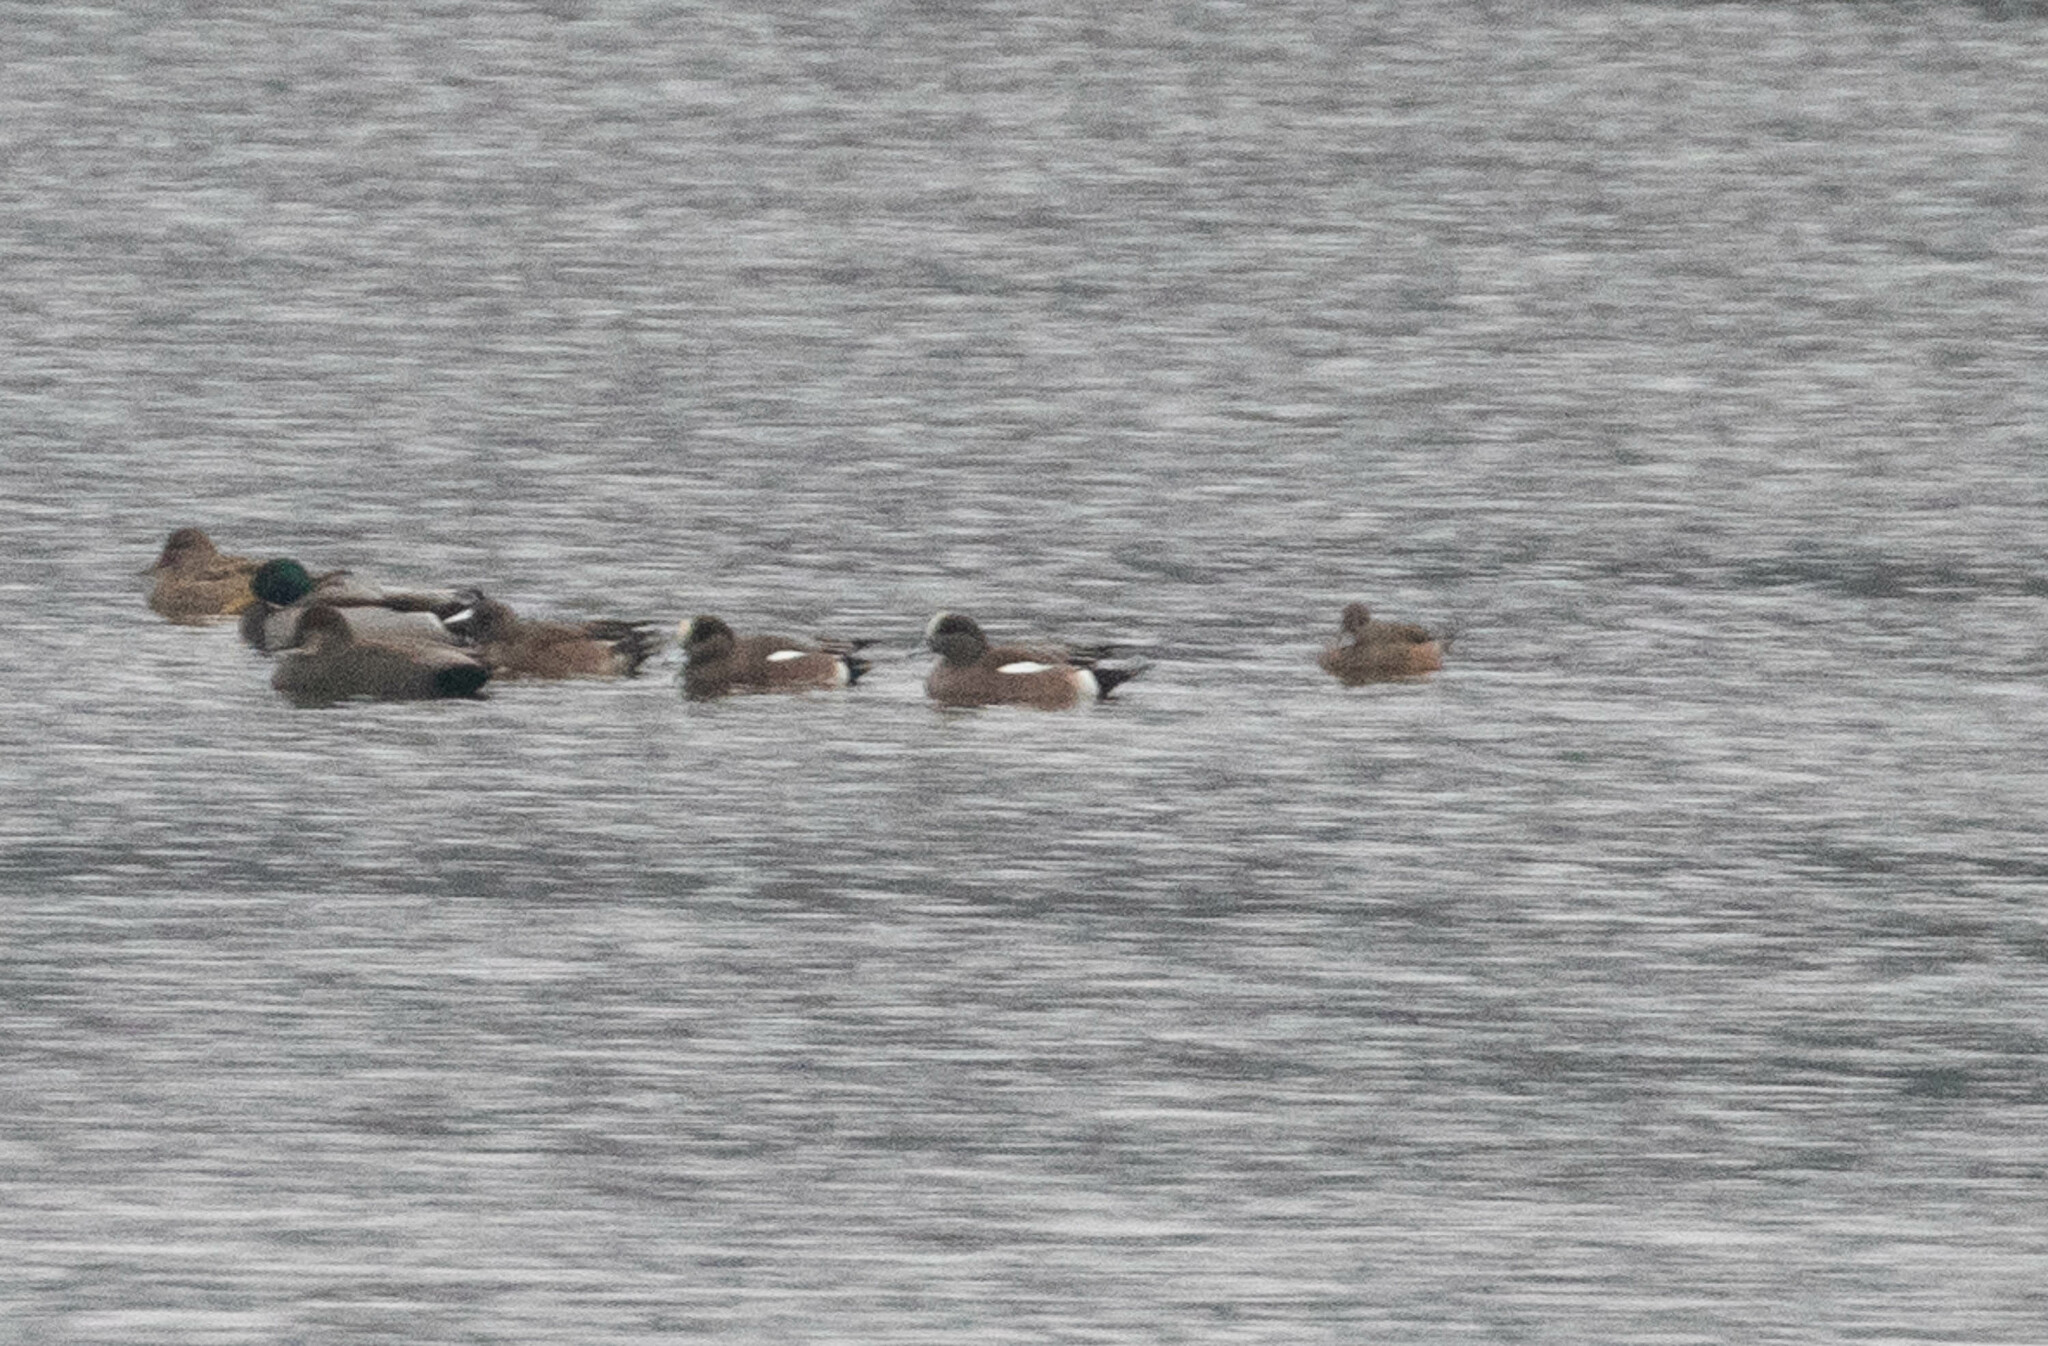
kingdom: Animalia
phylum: Chordata
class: Aves
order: Anseriformes
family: Anatidae
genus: Mareca
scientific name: Mareca americana
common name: American wigeon
